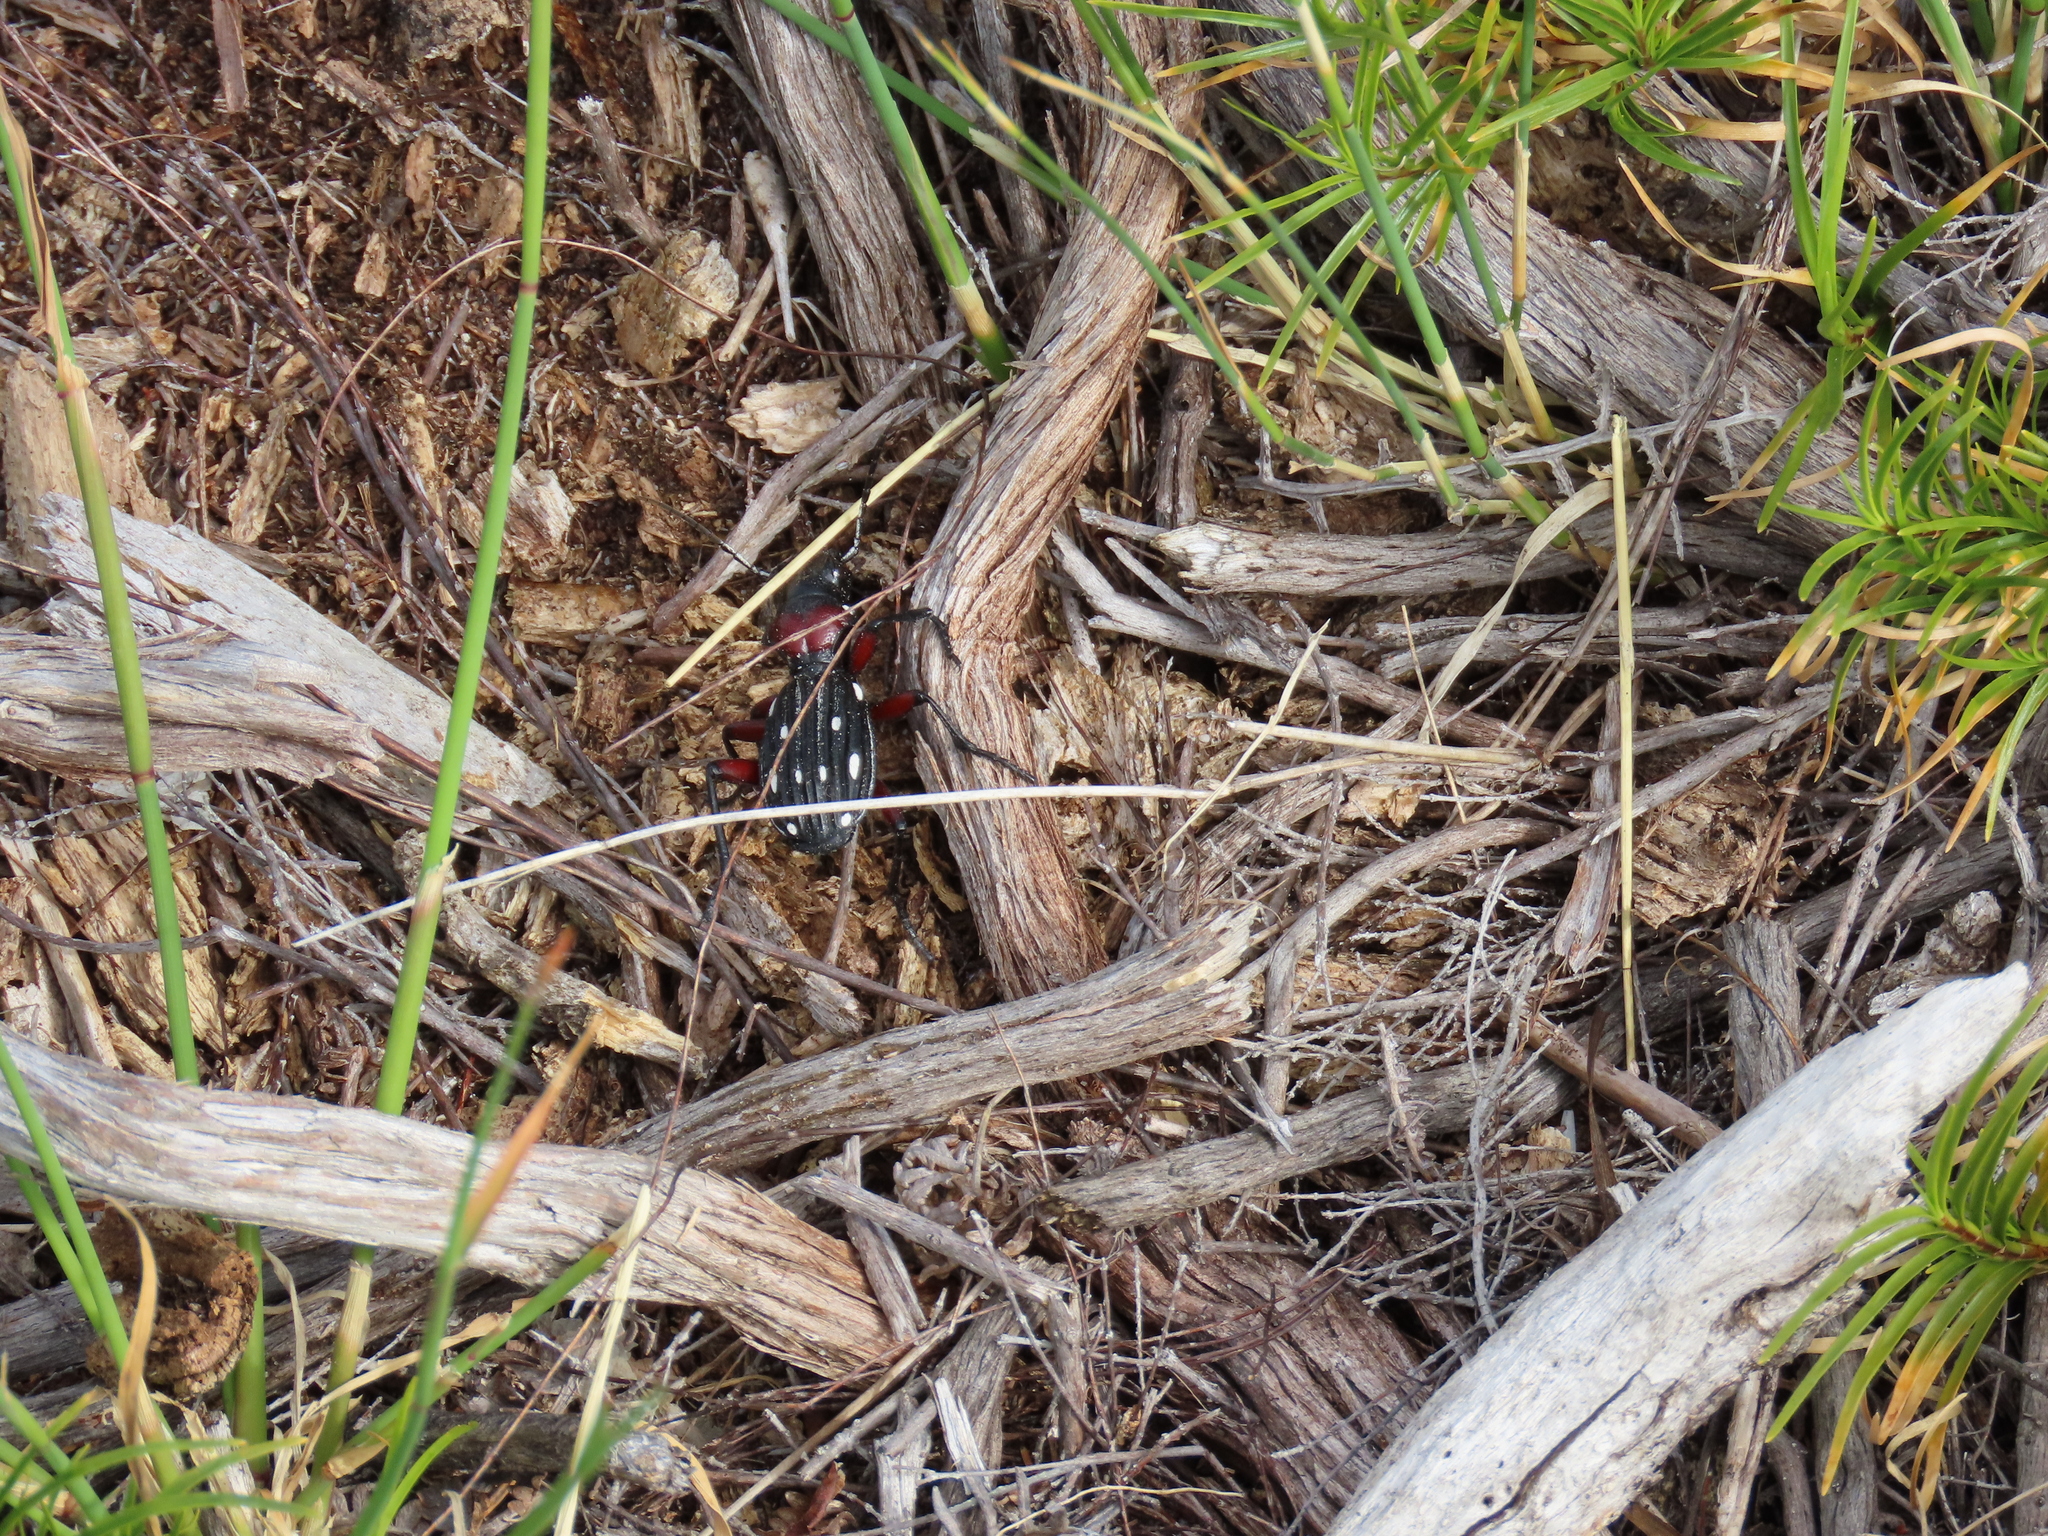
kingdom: Animalia
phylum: Arthropoda
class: Insecta
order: Coleoptera
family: Carabidae
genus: Anthia
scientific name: Anthia decemguttata
